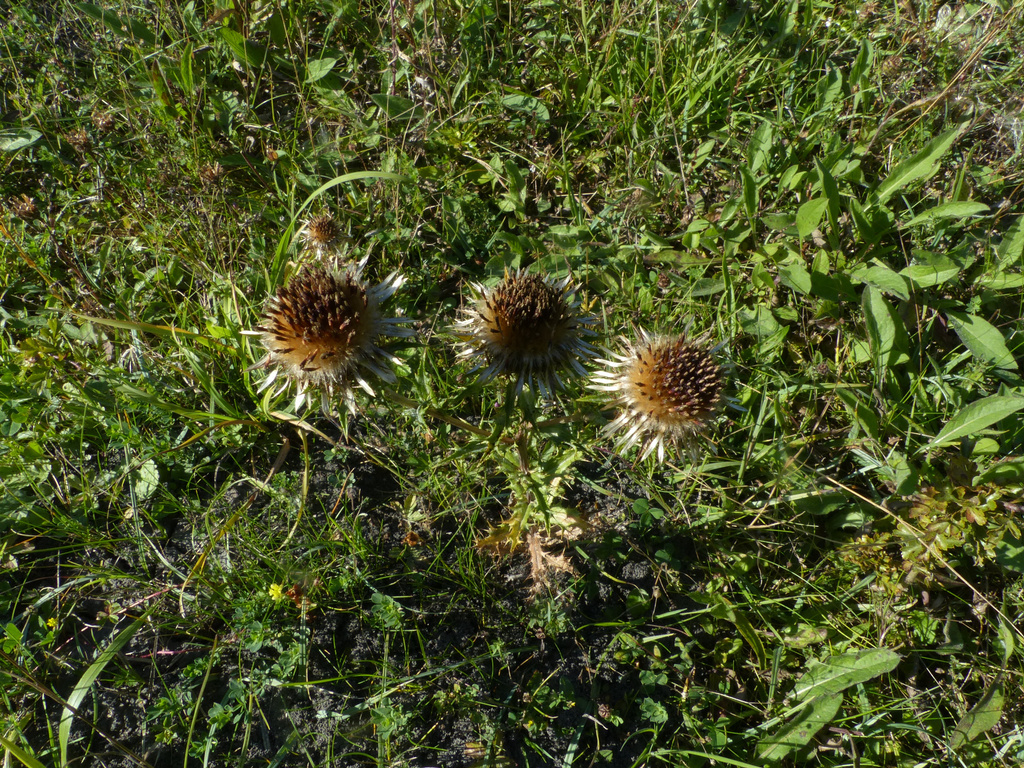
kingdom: Plantae
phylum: Tracheophyta
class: Magnoliopsida
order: Asterales
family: Asteraceae
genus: Carlina
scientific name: Carlina vulgaris
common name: Carline thistle
